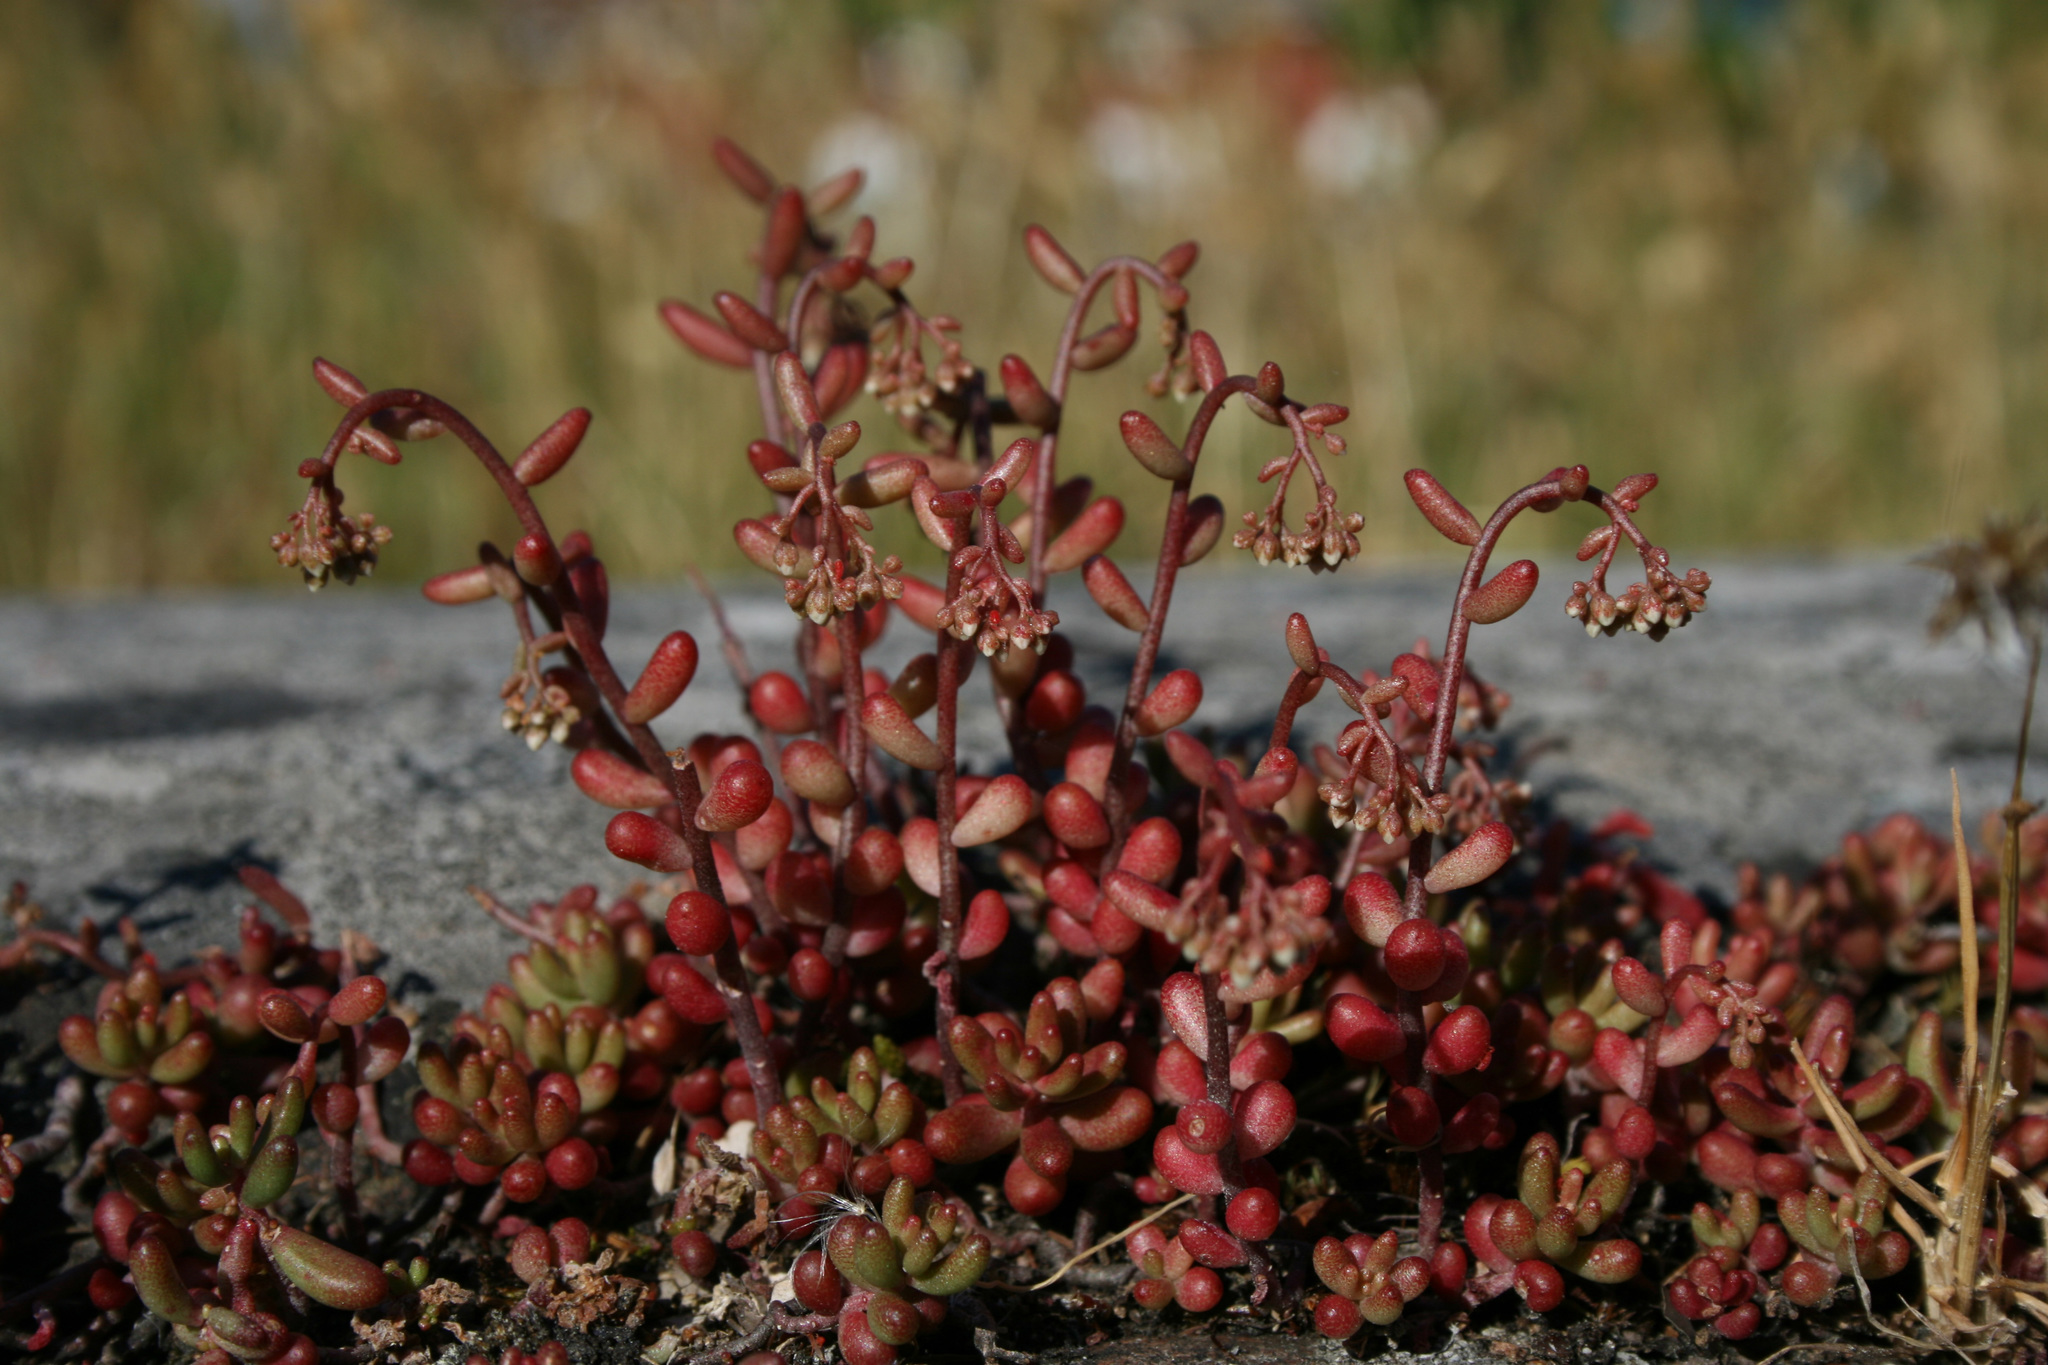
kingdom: Plantae
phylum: Tracheophyta
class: Magnoliopsida
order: Saxifragales
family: Crassulaceae
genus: Sedum
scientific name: Sedum album
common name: White stonecrop
